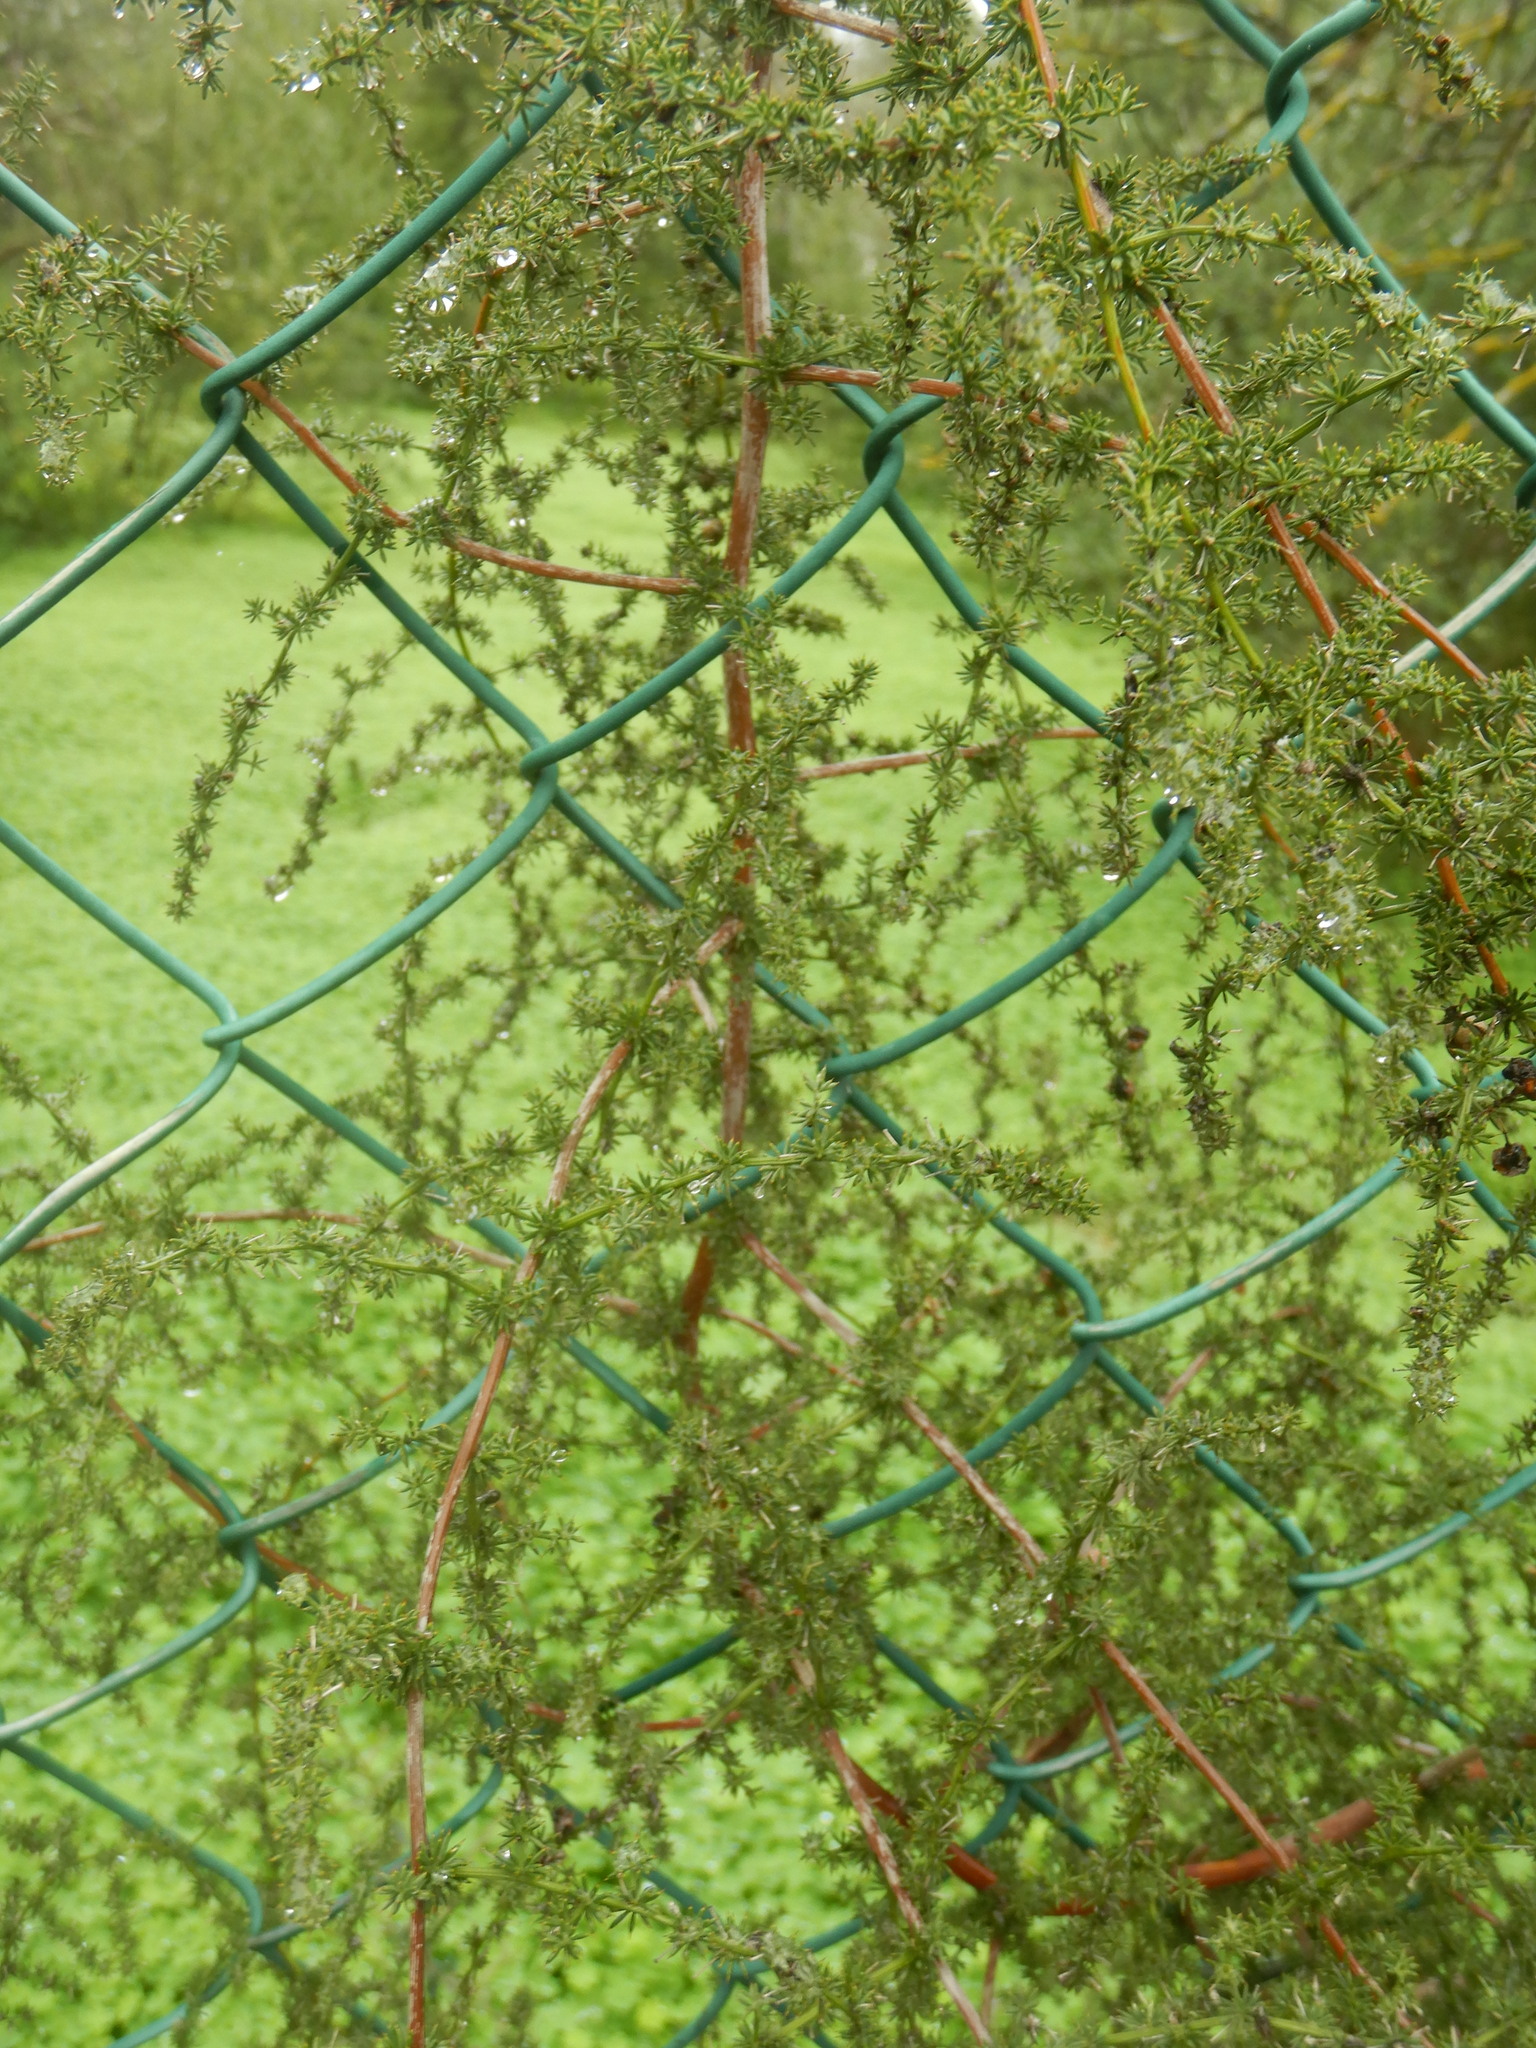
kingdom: Plantae
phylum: Tracheophyta
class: Liliopsida
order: Asparagales
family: Asparagaceae
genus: Asparagus
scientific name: Asparagus acutifolius
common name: Wild asparagus
